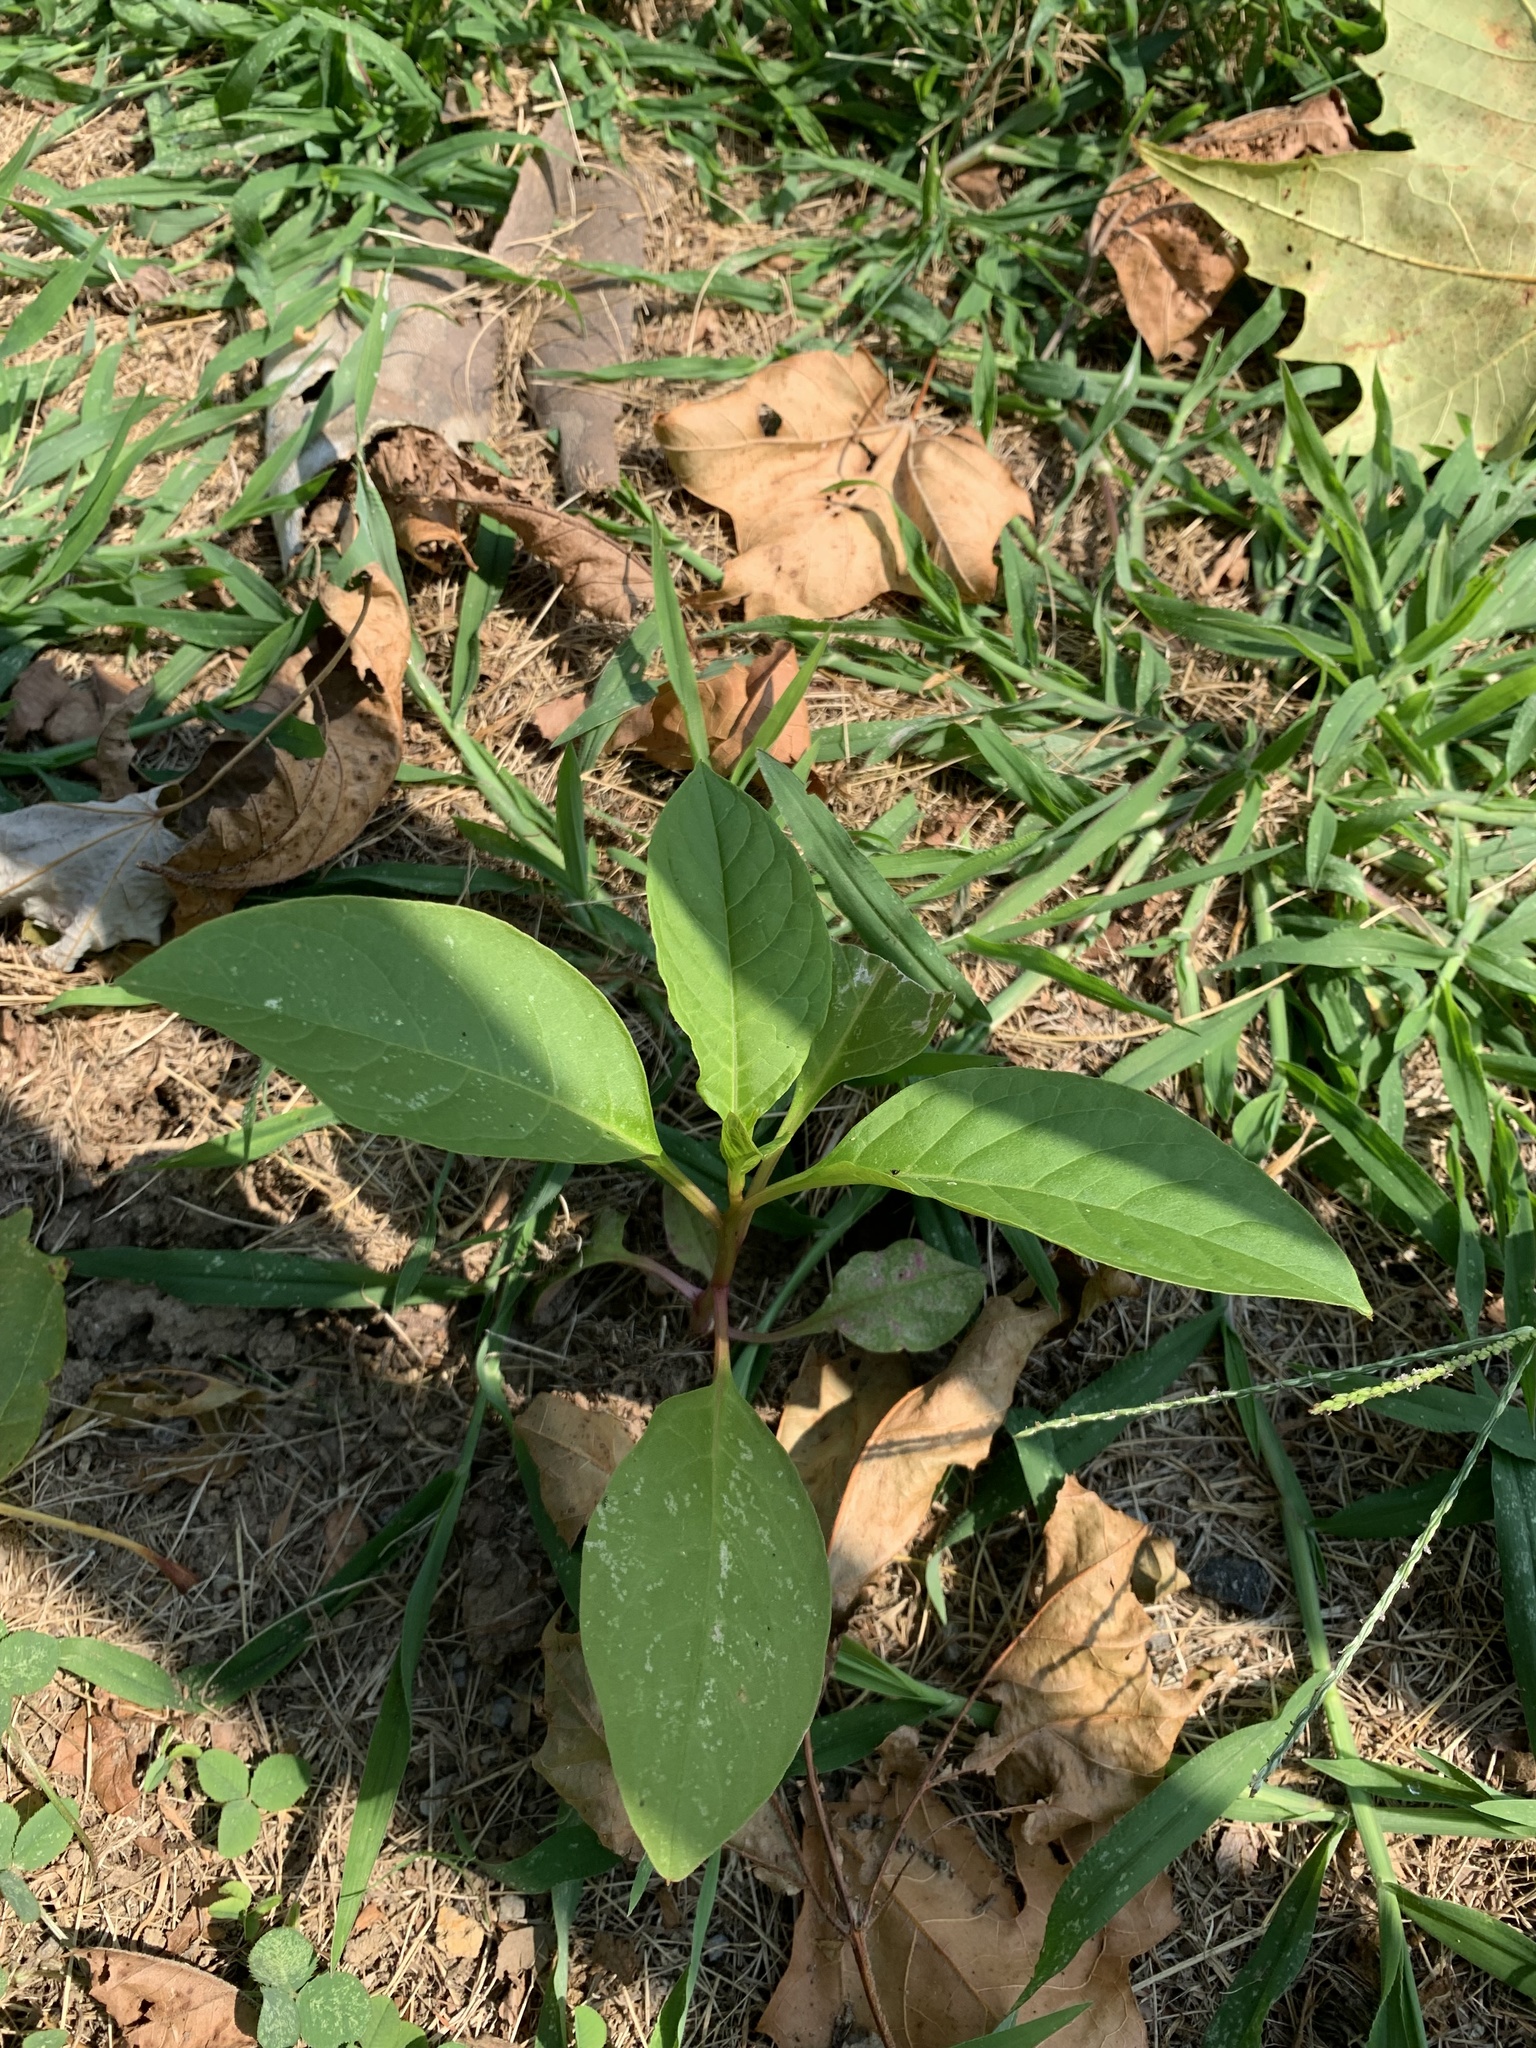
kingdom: Plantae
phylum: Tracheophyta
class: Magnoliopsida
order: Caryophyllales
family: Phytolaccaceae
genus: Phytolacca
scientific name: Phytolacca americana
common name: American pokeweed
